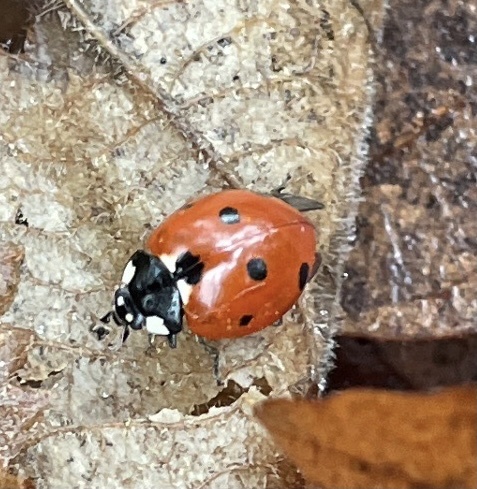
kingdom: Animalia
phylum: Arthropoda
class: Insecta
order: Coleoptera
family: Coccinellidae
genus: Coccinella
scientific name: Coccinella septempunctata
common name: Sevenspotted lady beetle
